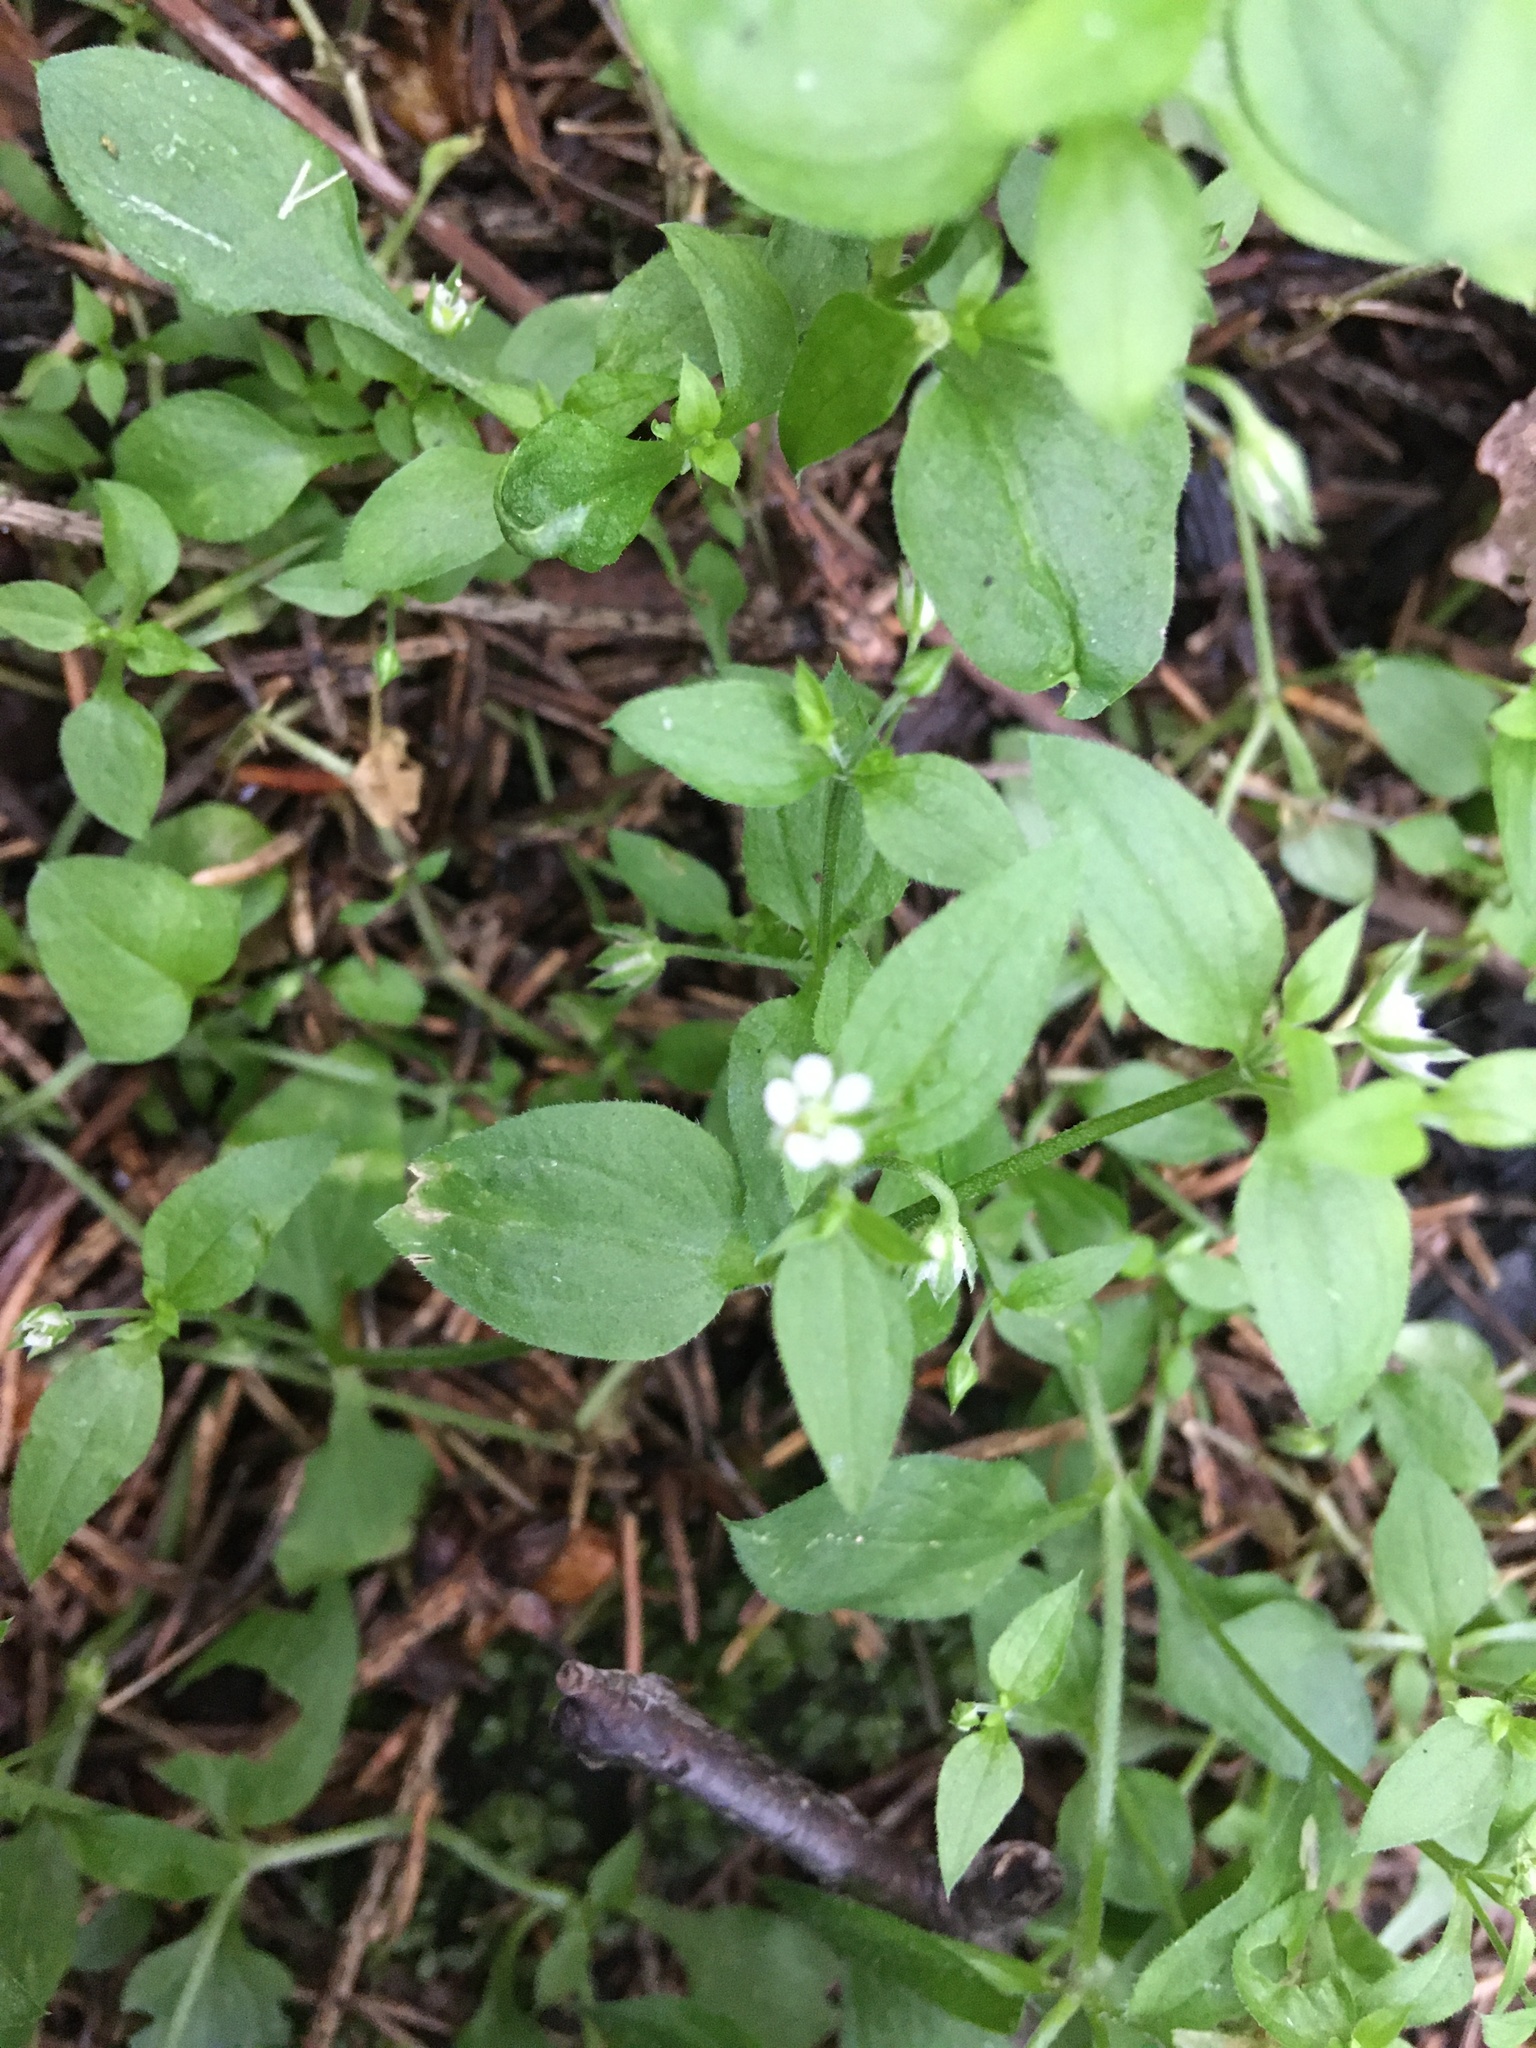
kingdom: Plantae
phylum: Tracheophyta
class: Magnoliopsida
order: Caryophyllales
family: Caryophyllaceae
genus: Moehringia
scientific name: Moehringia trinervia
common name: Three-nerved sandwort
